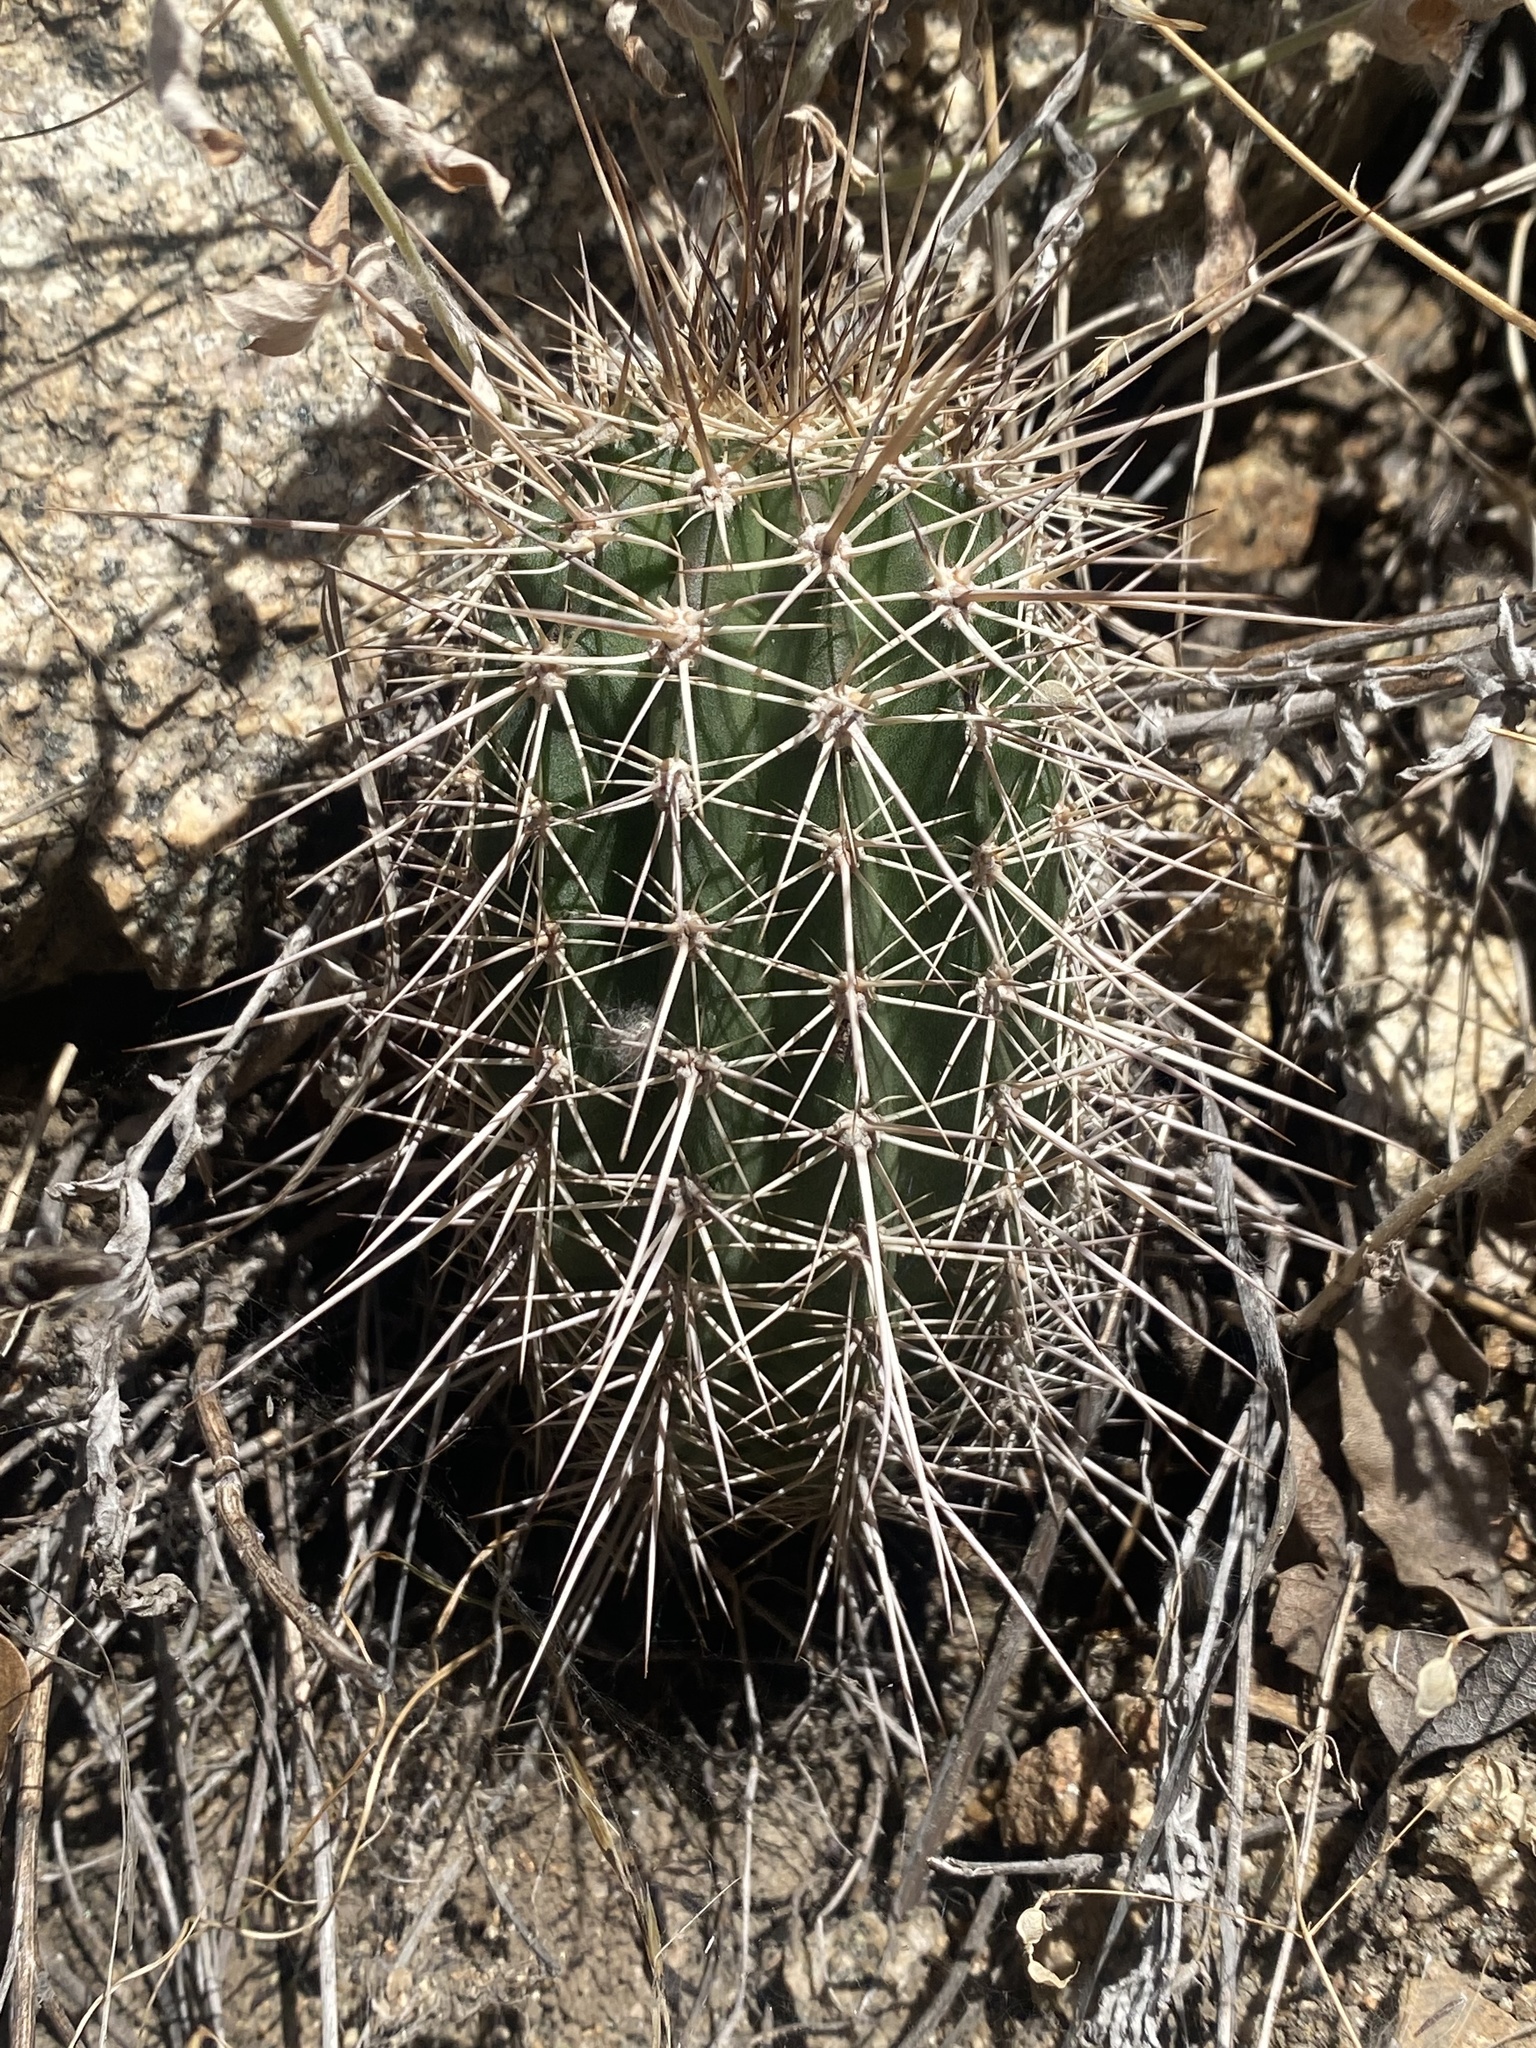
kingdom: Plantae
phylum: Tracheophyta
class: Magnoliopsida
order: Caryophyllales
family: Cactaceae
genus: Echinocereus
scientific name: Echinocereus coccineus
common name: Scarlet hedgehog cactus
